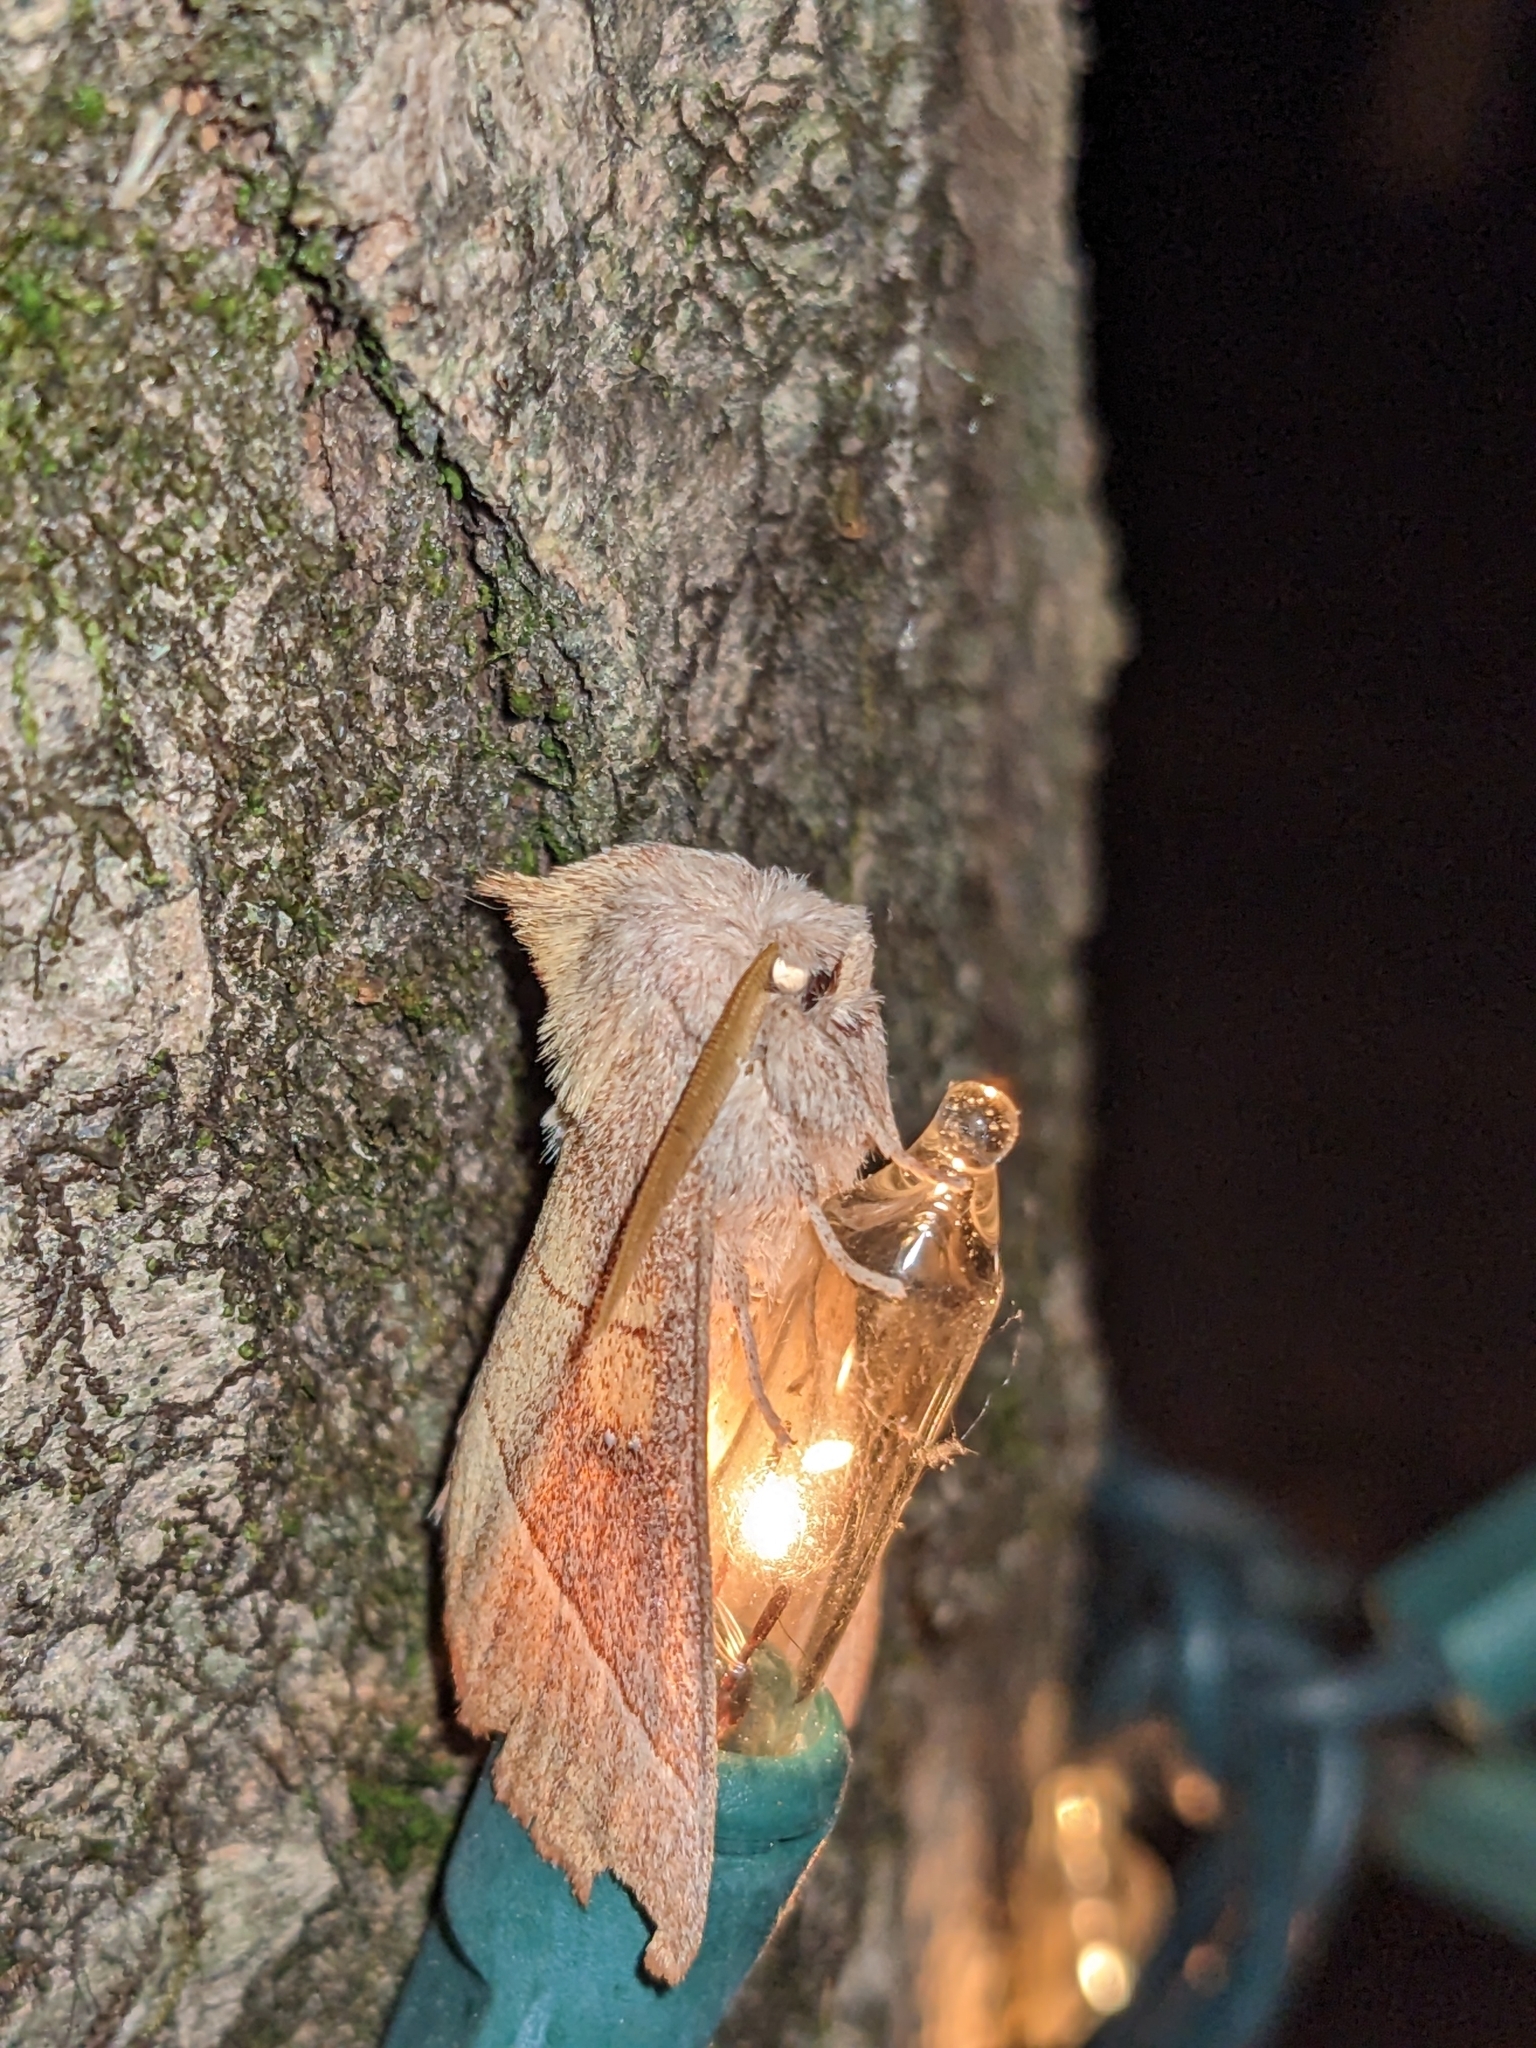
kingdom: Animalia
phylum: Arthropoda
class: Insecta
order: Lepidoptera
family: Notodontidae
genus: Nadata
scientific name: Nadata gibbosa
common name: White-dotted prominent
